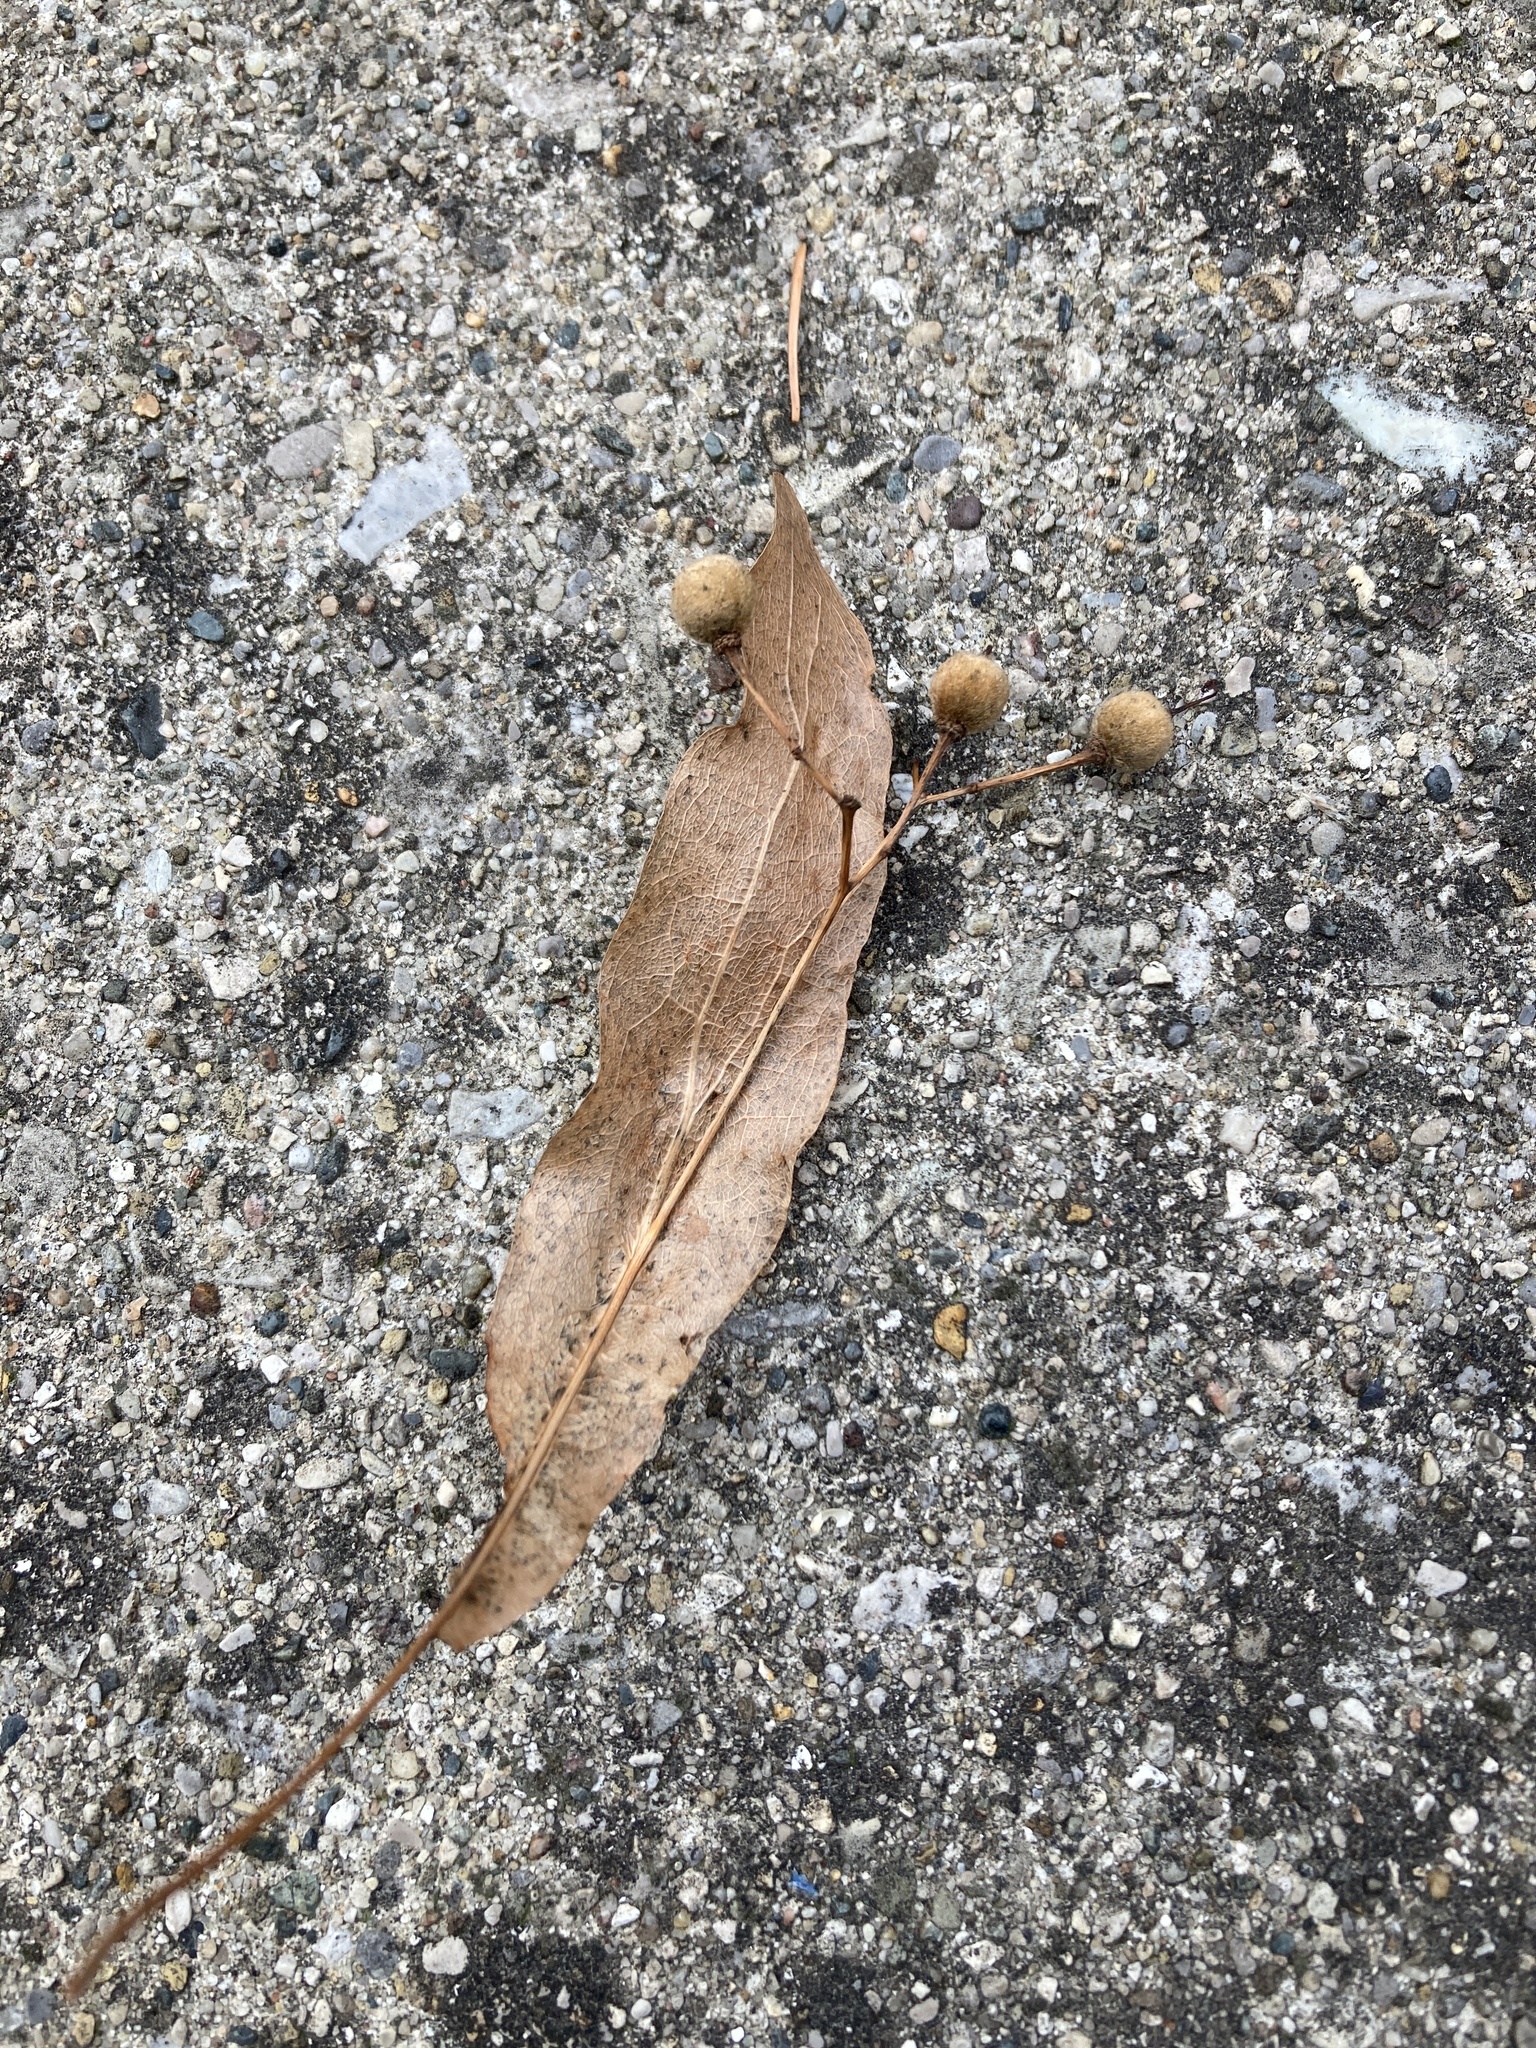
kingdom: Plantae
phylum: Tracheophyta
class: Magnoliopsida
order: Malvales
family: Malvaceae
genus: Tilia
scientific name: Tilia americana
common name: Basswood
